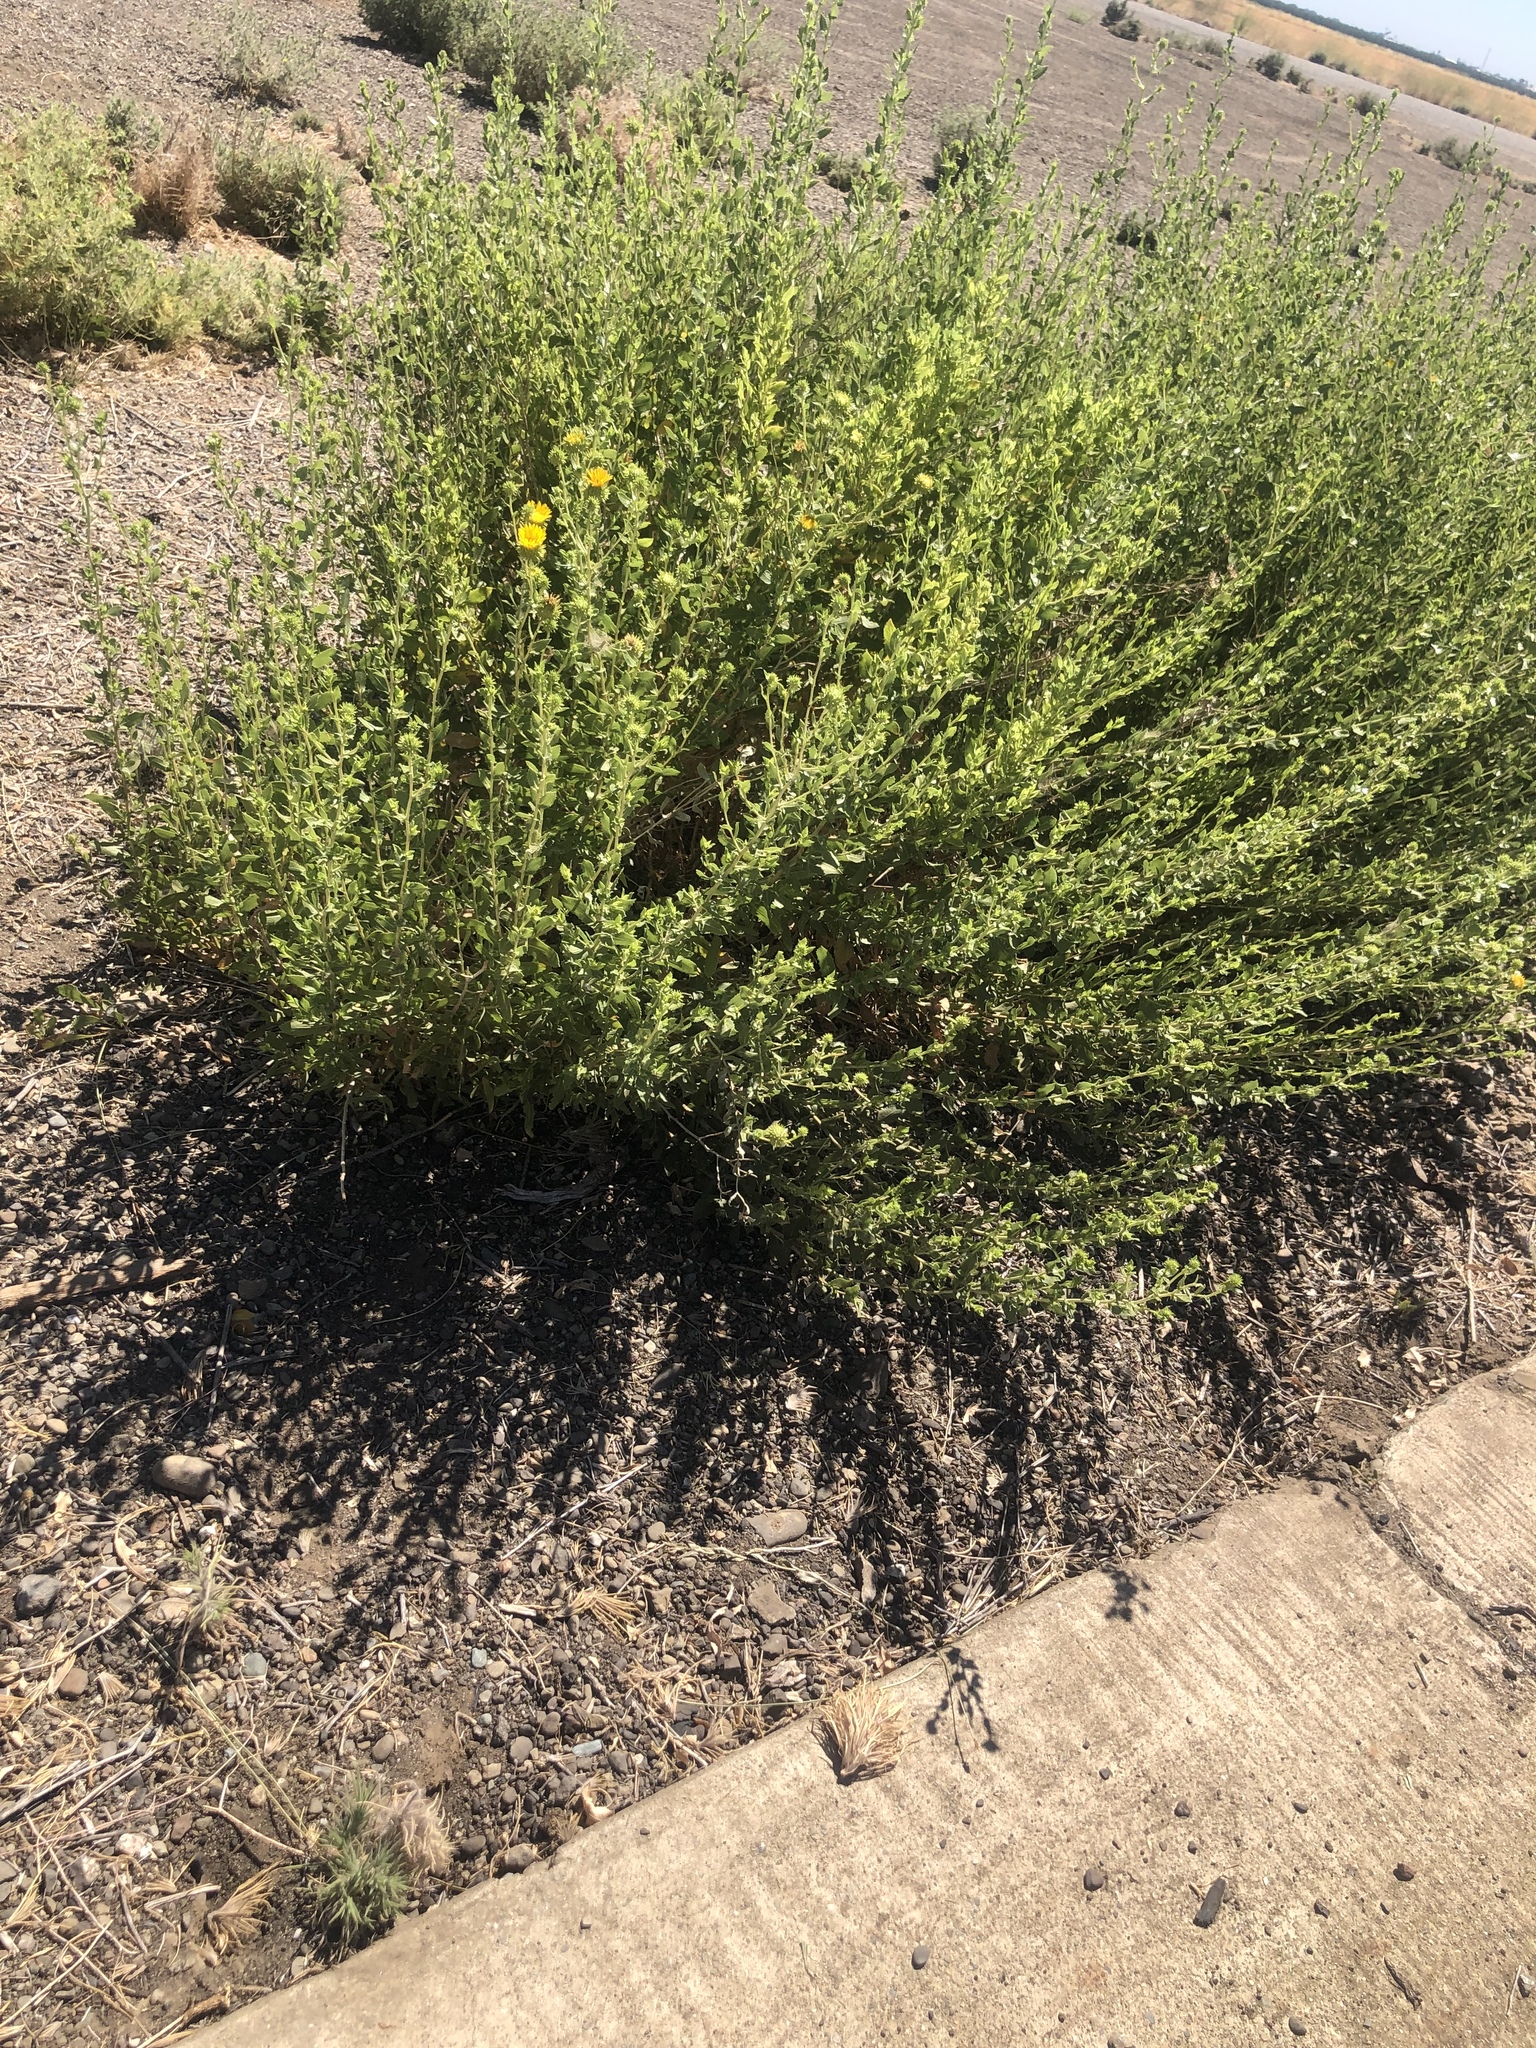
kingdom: Plantae
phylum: Tracheophyta
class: Magnoliopsida
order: Asterales
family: Asteraceae
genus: Grindelia
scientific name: Grindelia hirsutula
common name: Hairy gumweed
